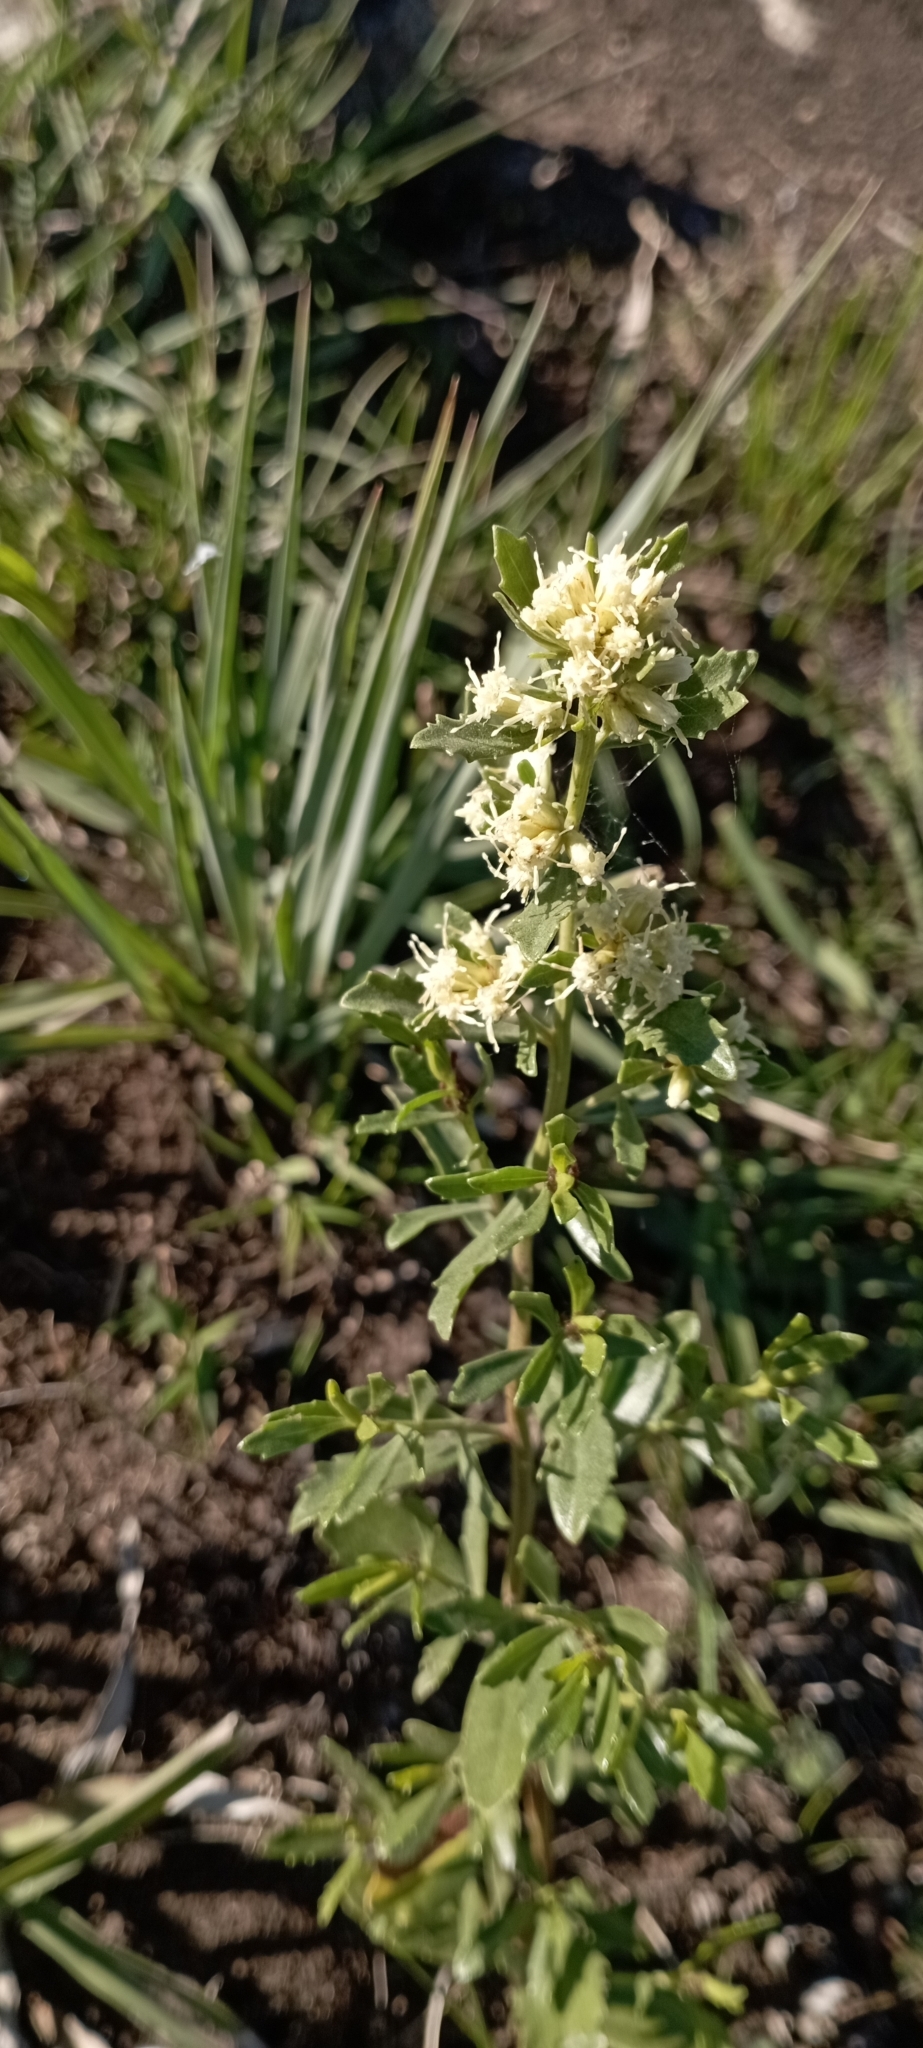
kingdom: Plantae
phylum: Tracheophyta
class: Magnoliopsida
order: Asterales
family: Asteraceae
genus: Baccharis
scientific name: Baccharis linearifolia
